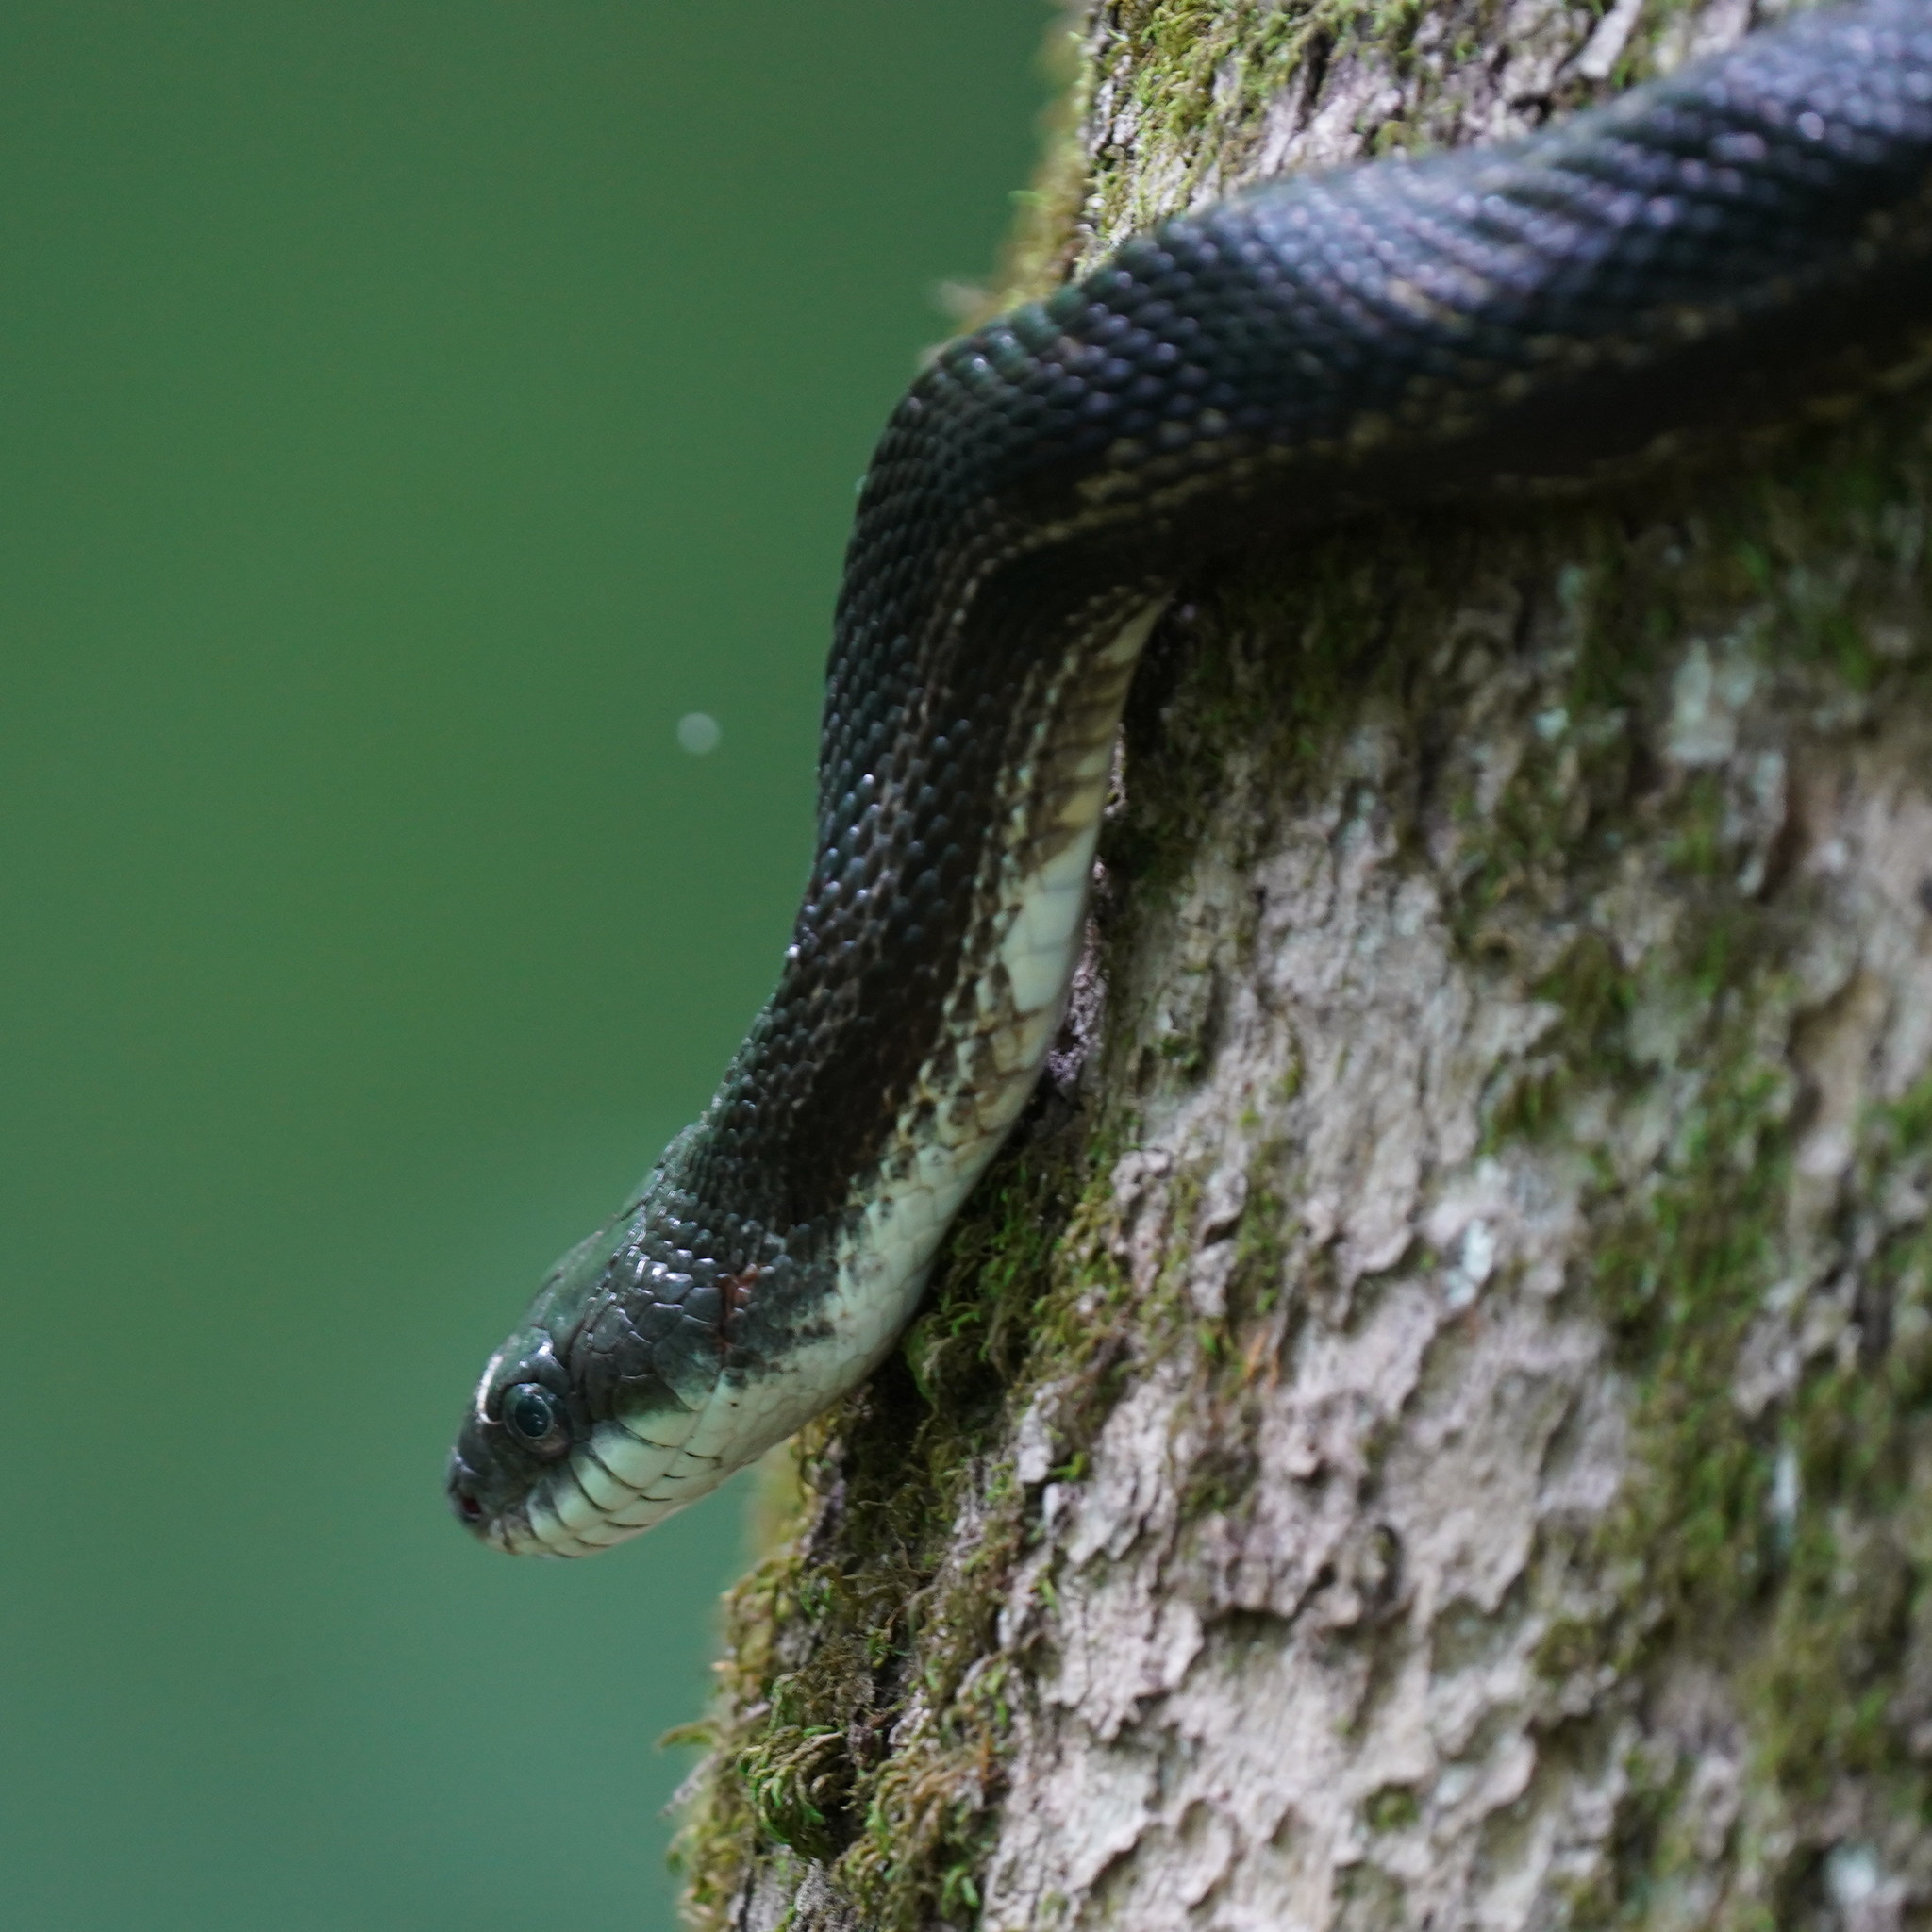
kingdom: Animalia
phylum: Chordata
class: Squamata
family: Colubridae
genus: Pantherophis
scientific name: Pantherophis spiloides
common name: Gray rat snake
